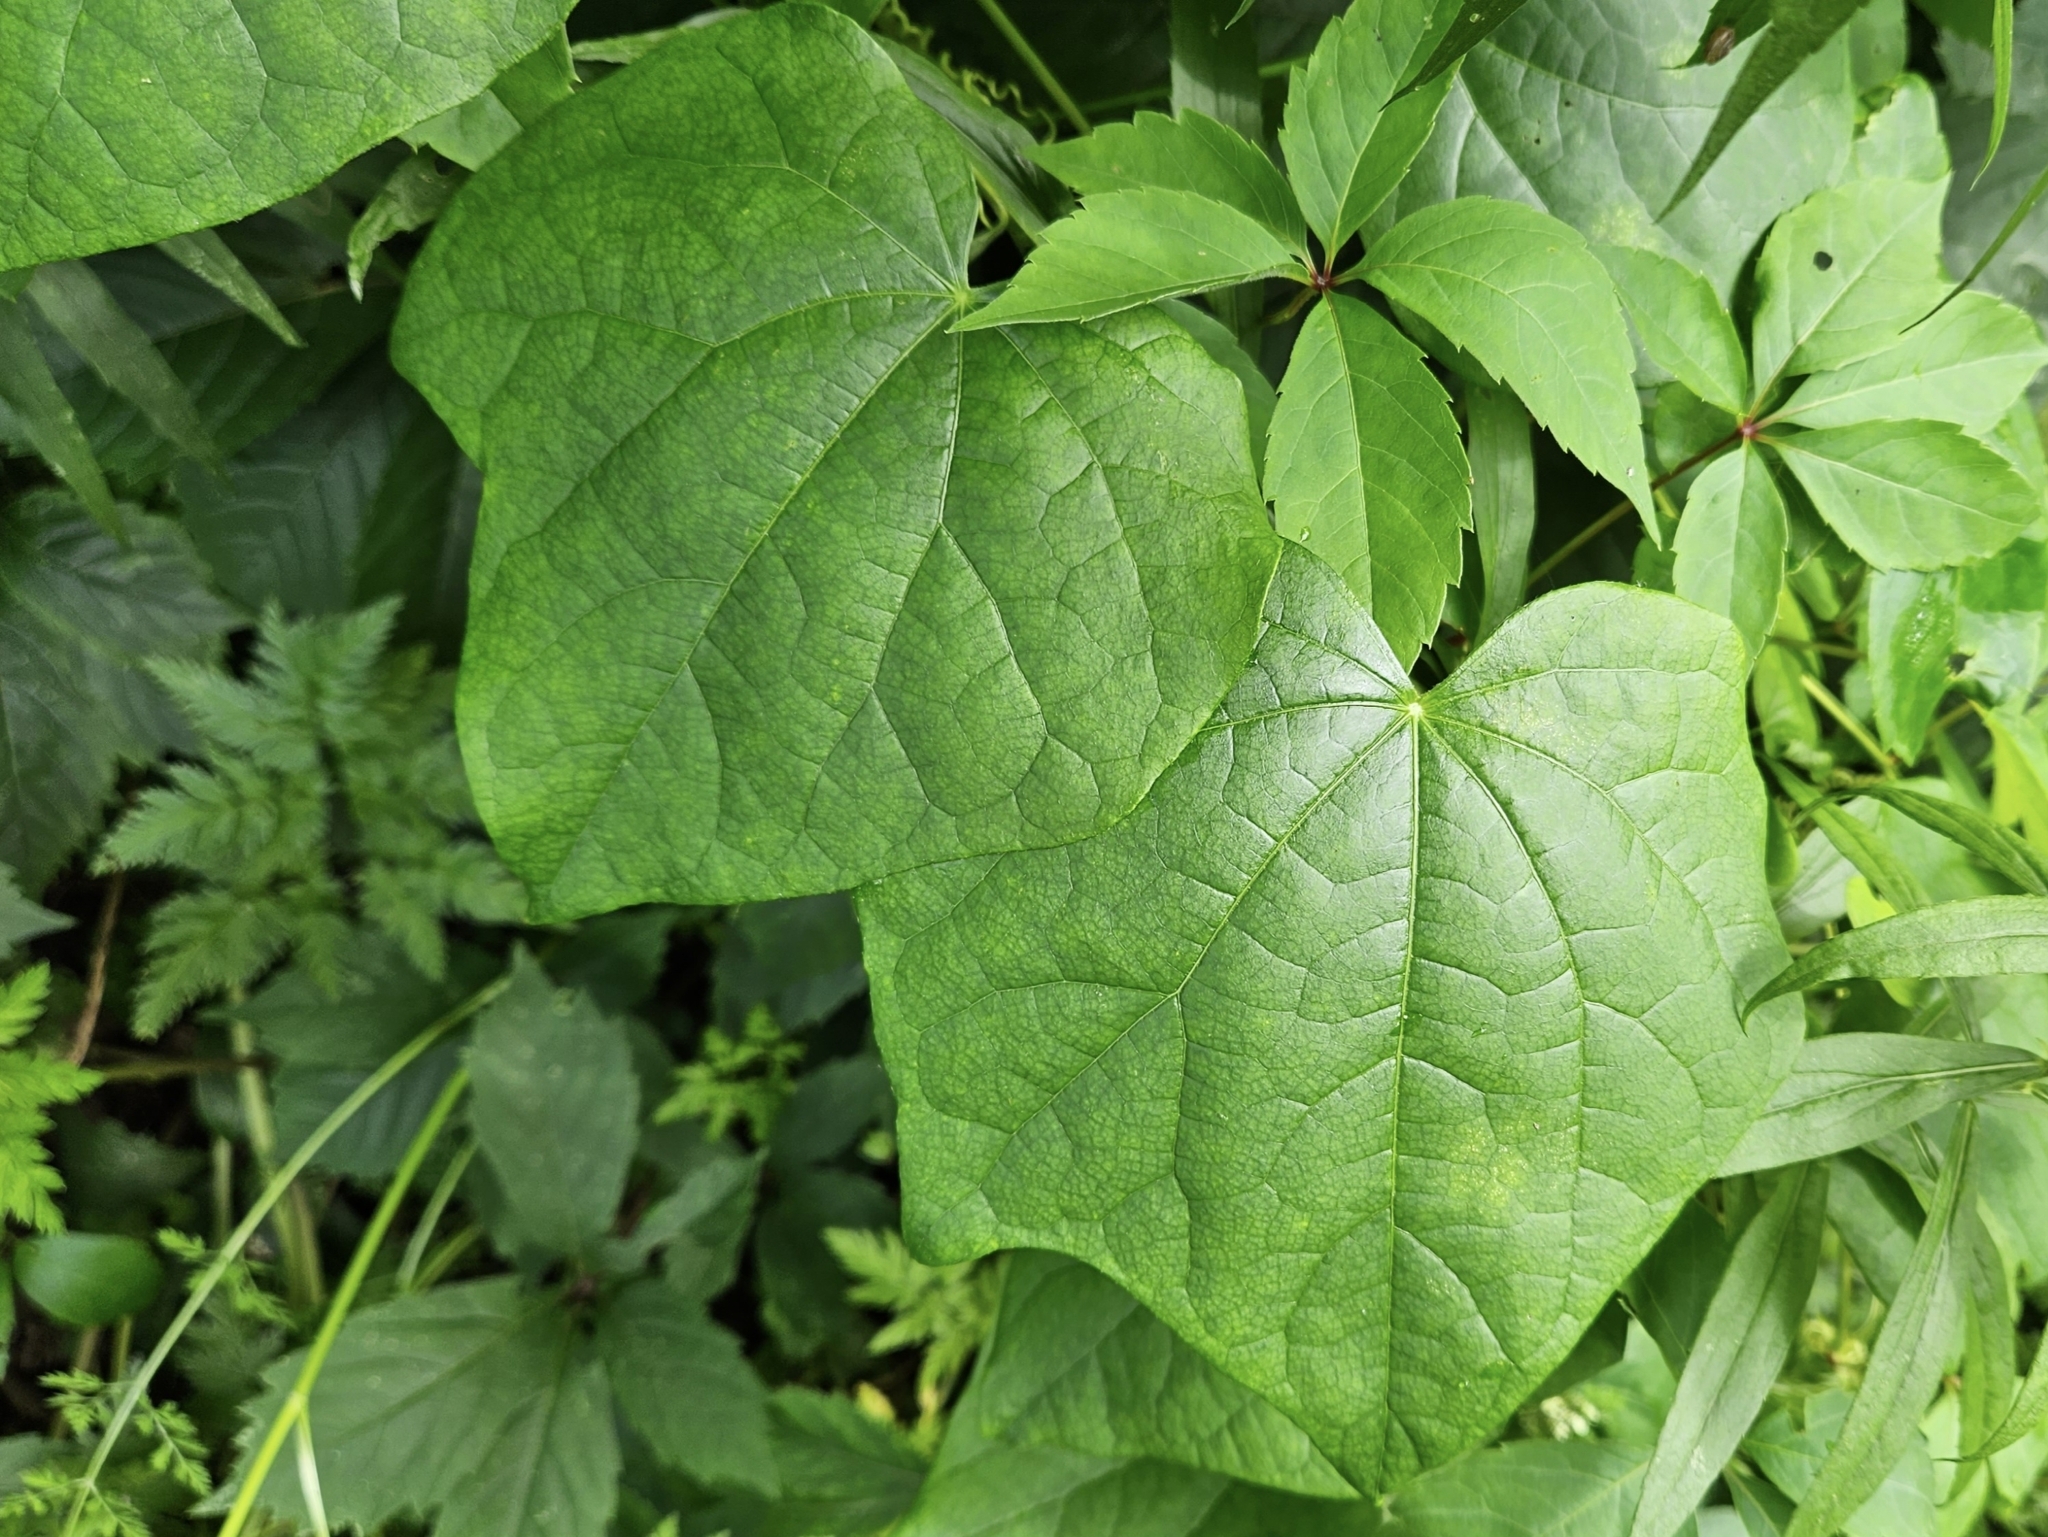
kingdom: Plantae
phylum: Tracheophyta
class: Magnoliopsida
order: Ranunculales
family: Menispermaceae
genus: Menispermum
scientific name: Menispermum canadense
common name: Moonseed
